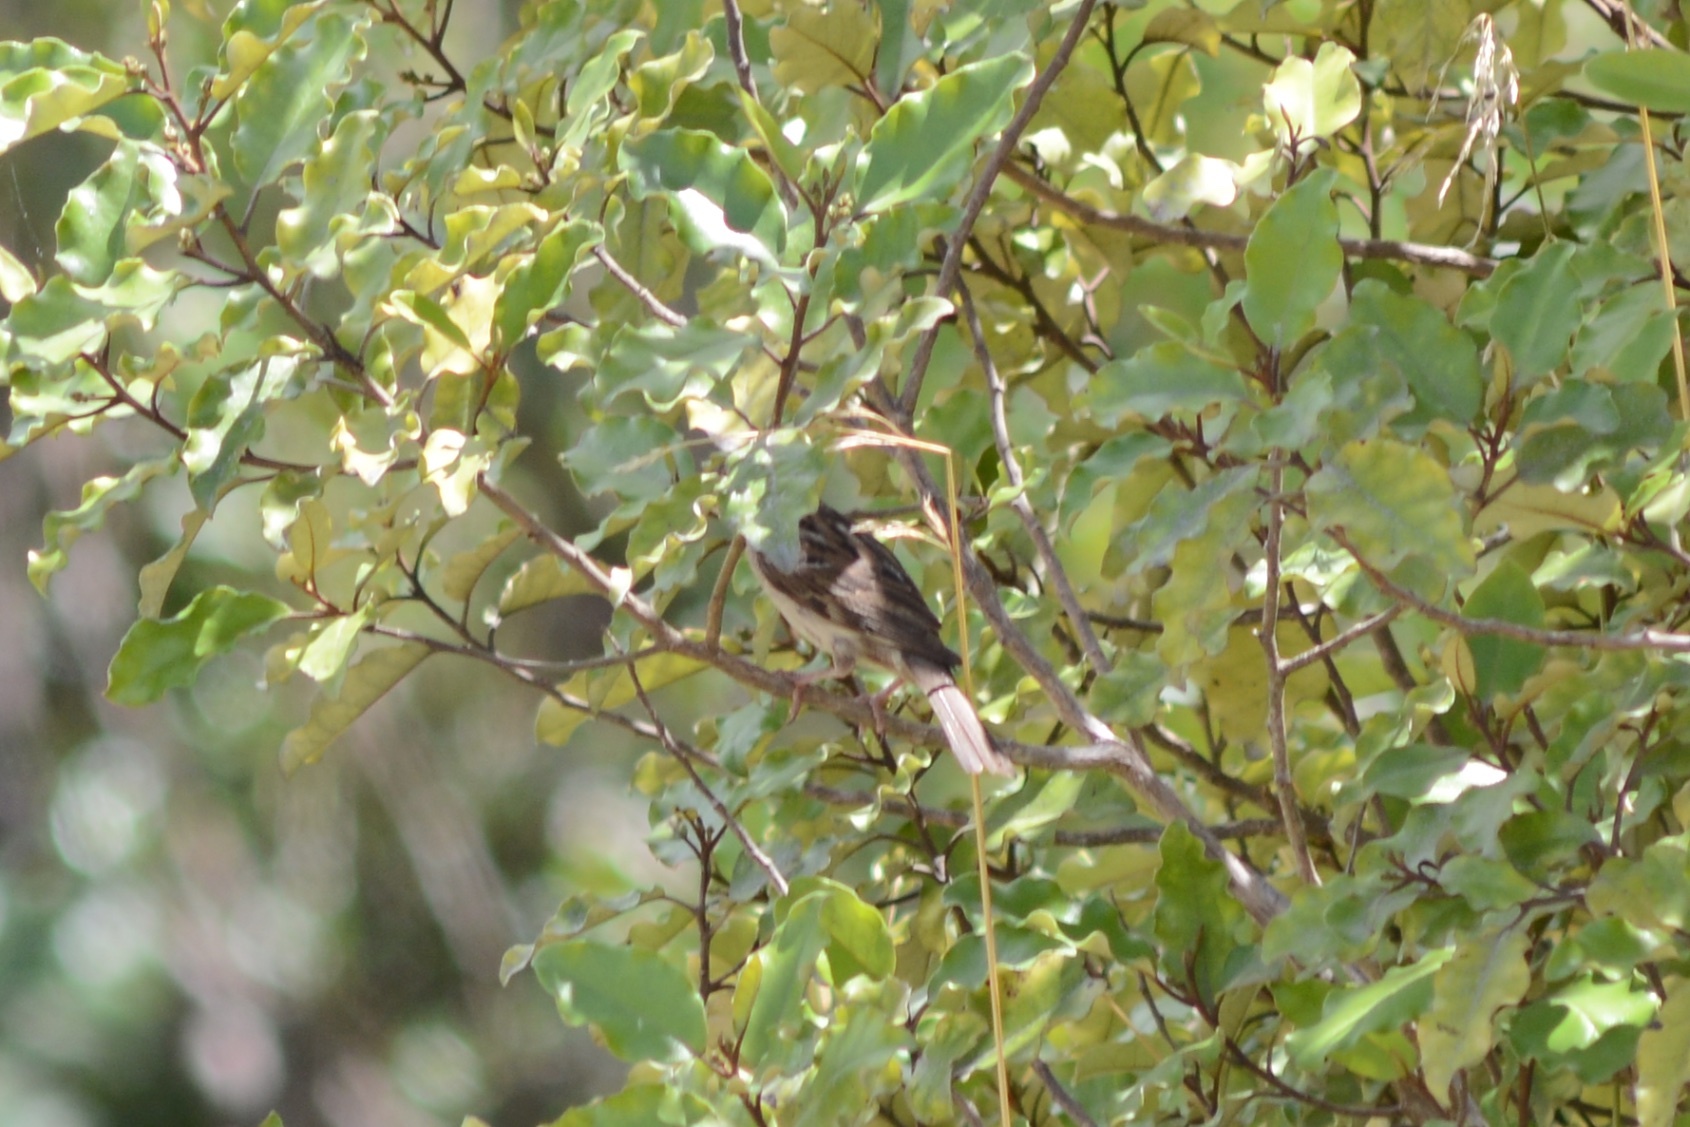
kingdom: Animalia
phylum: Chordata
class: Aves
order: Passeriformes
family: Passeridae
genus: Passer
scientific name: Passer domesticus
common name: House sparrow
